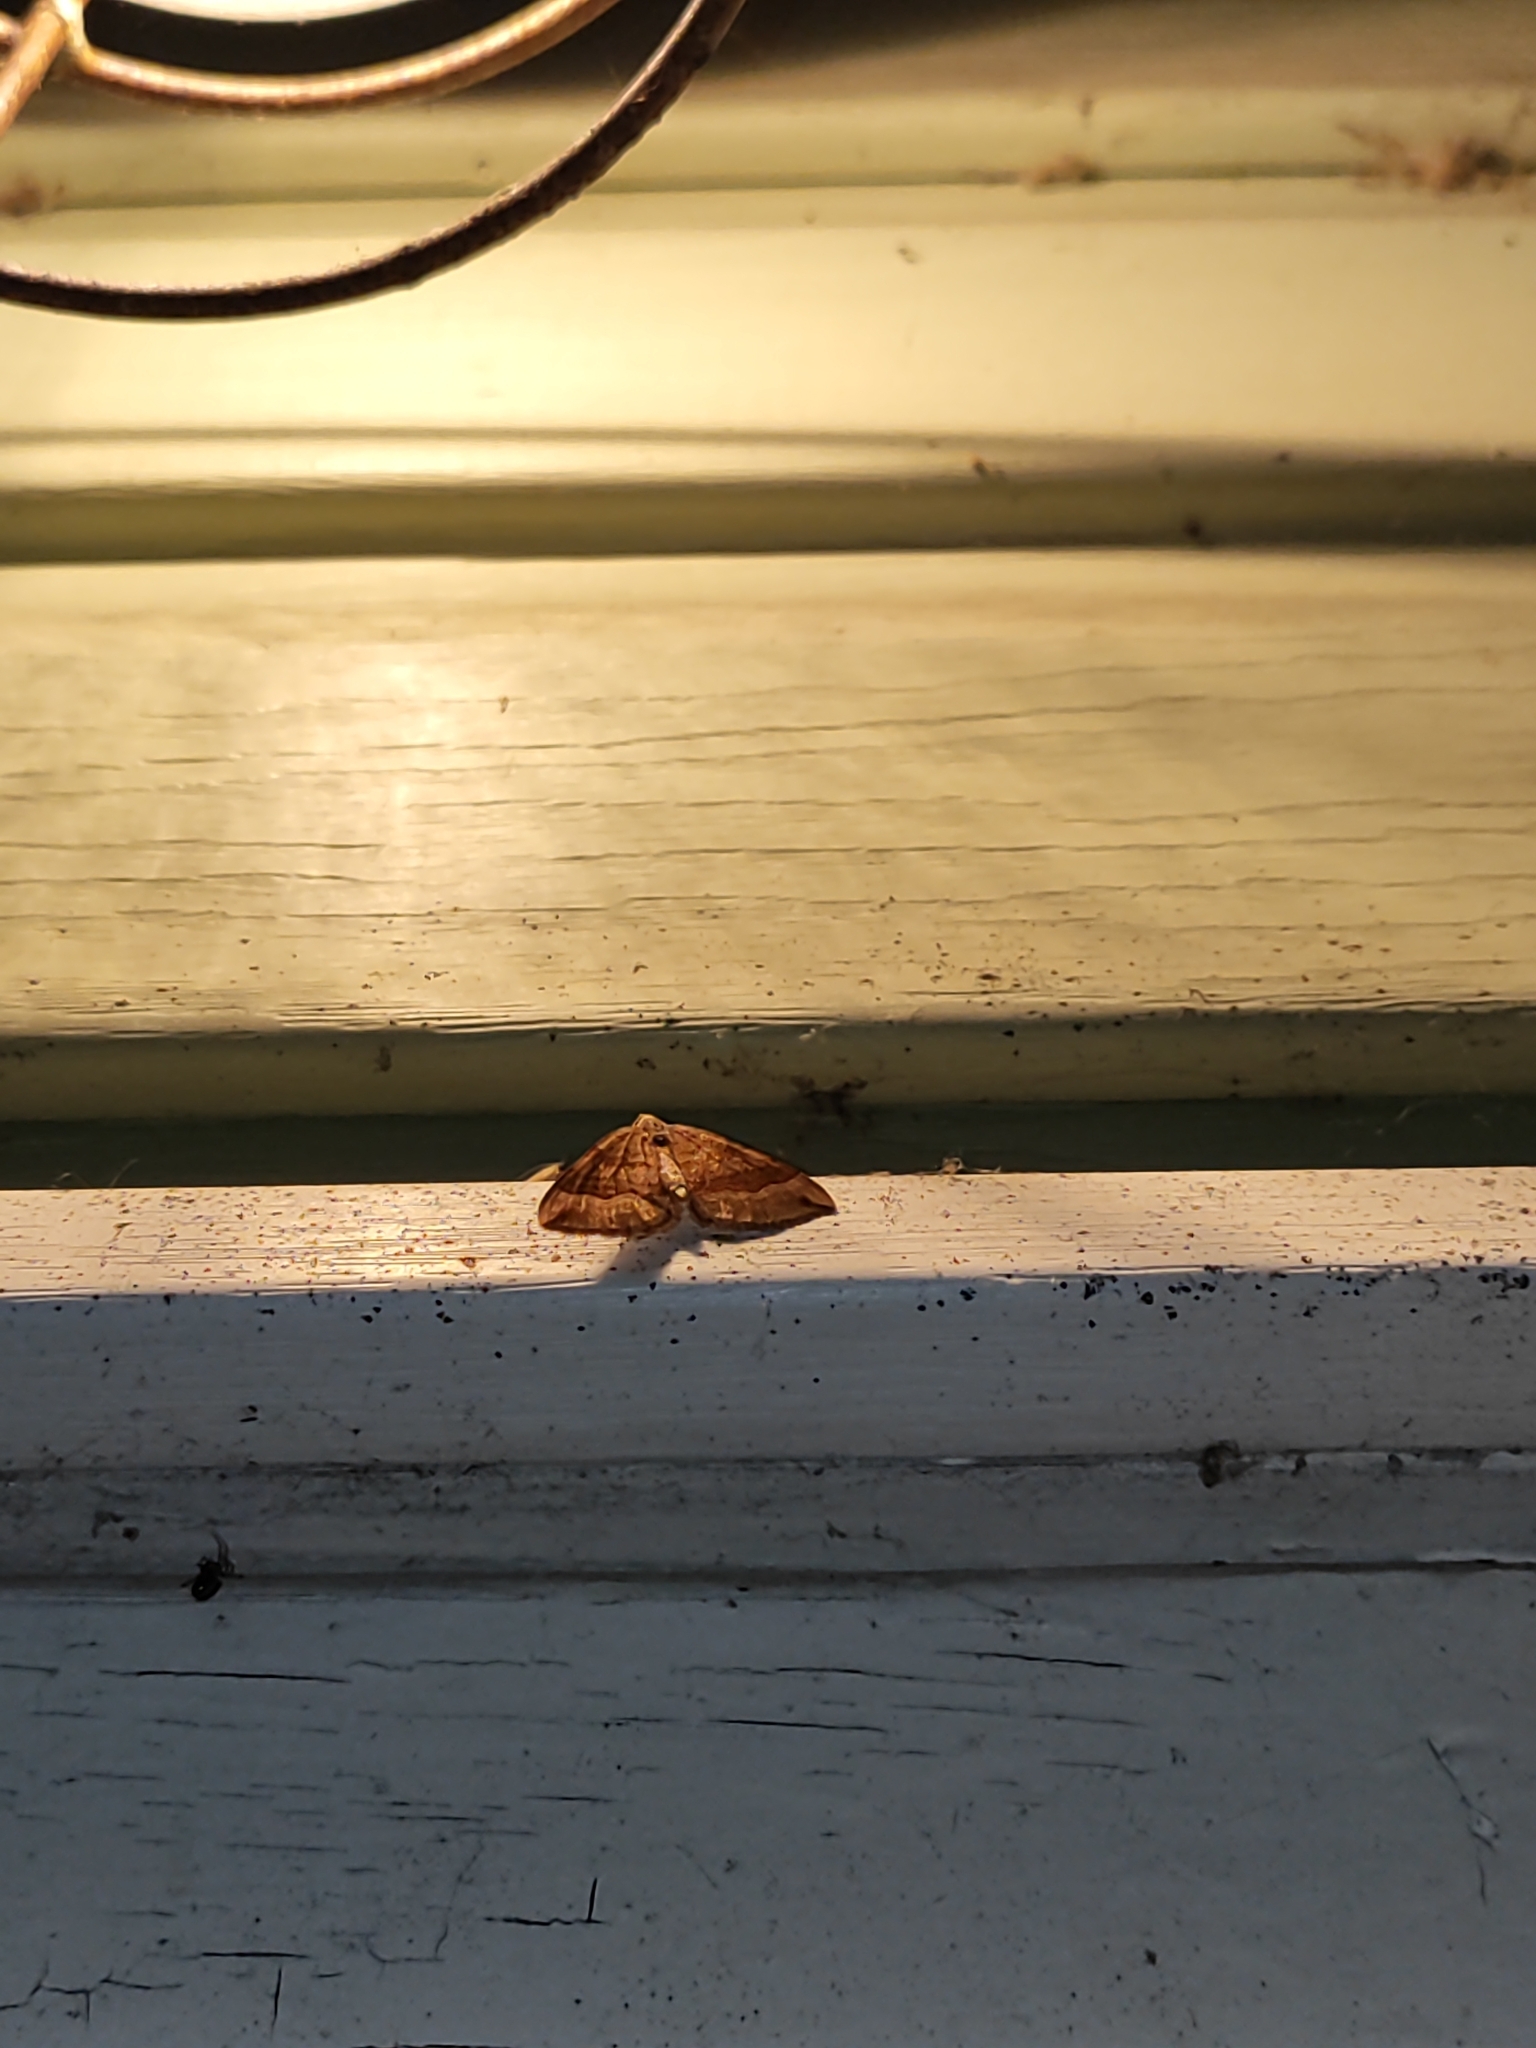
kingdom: Animalia
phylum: Arthropoda
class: Insecta
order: Lepidoptera
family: Geometridae
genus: Scotopteryx
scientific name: Scotopteryx chenopodiata
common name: Shaded broad-bar
